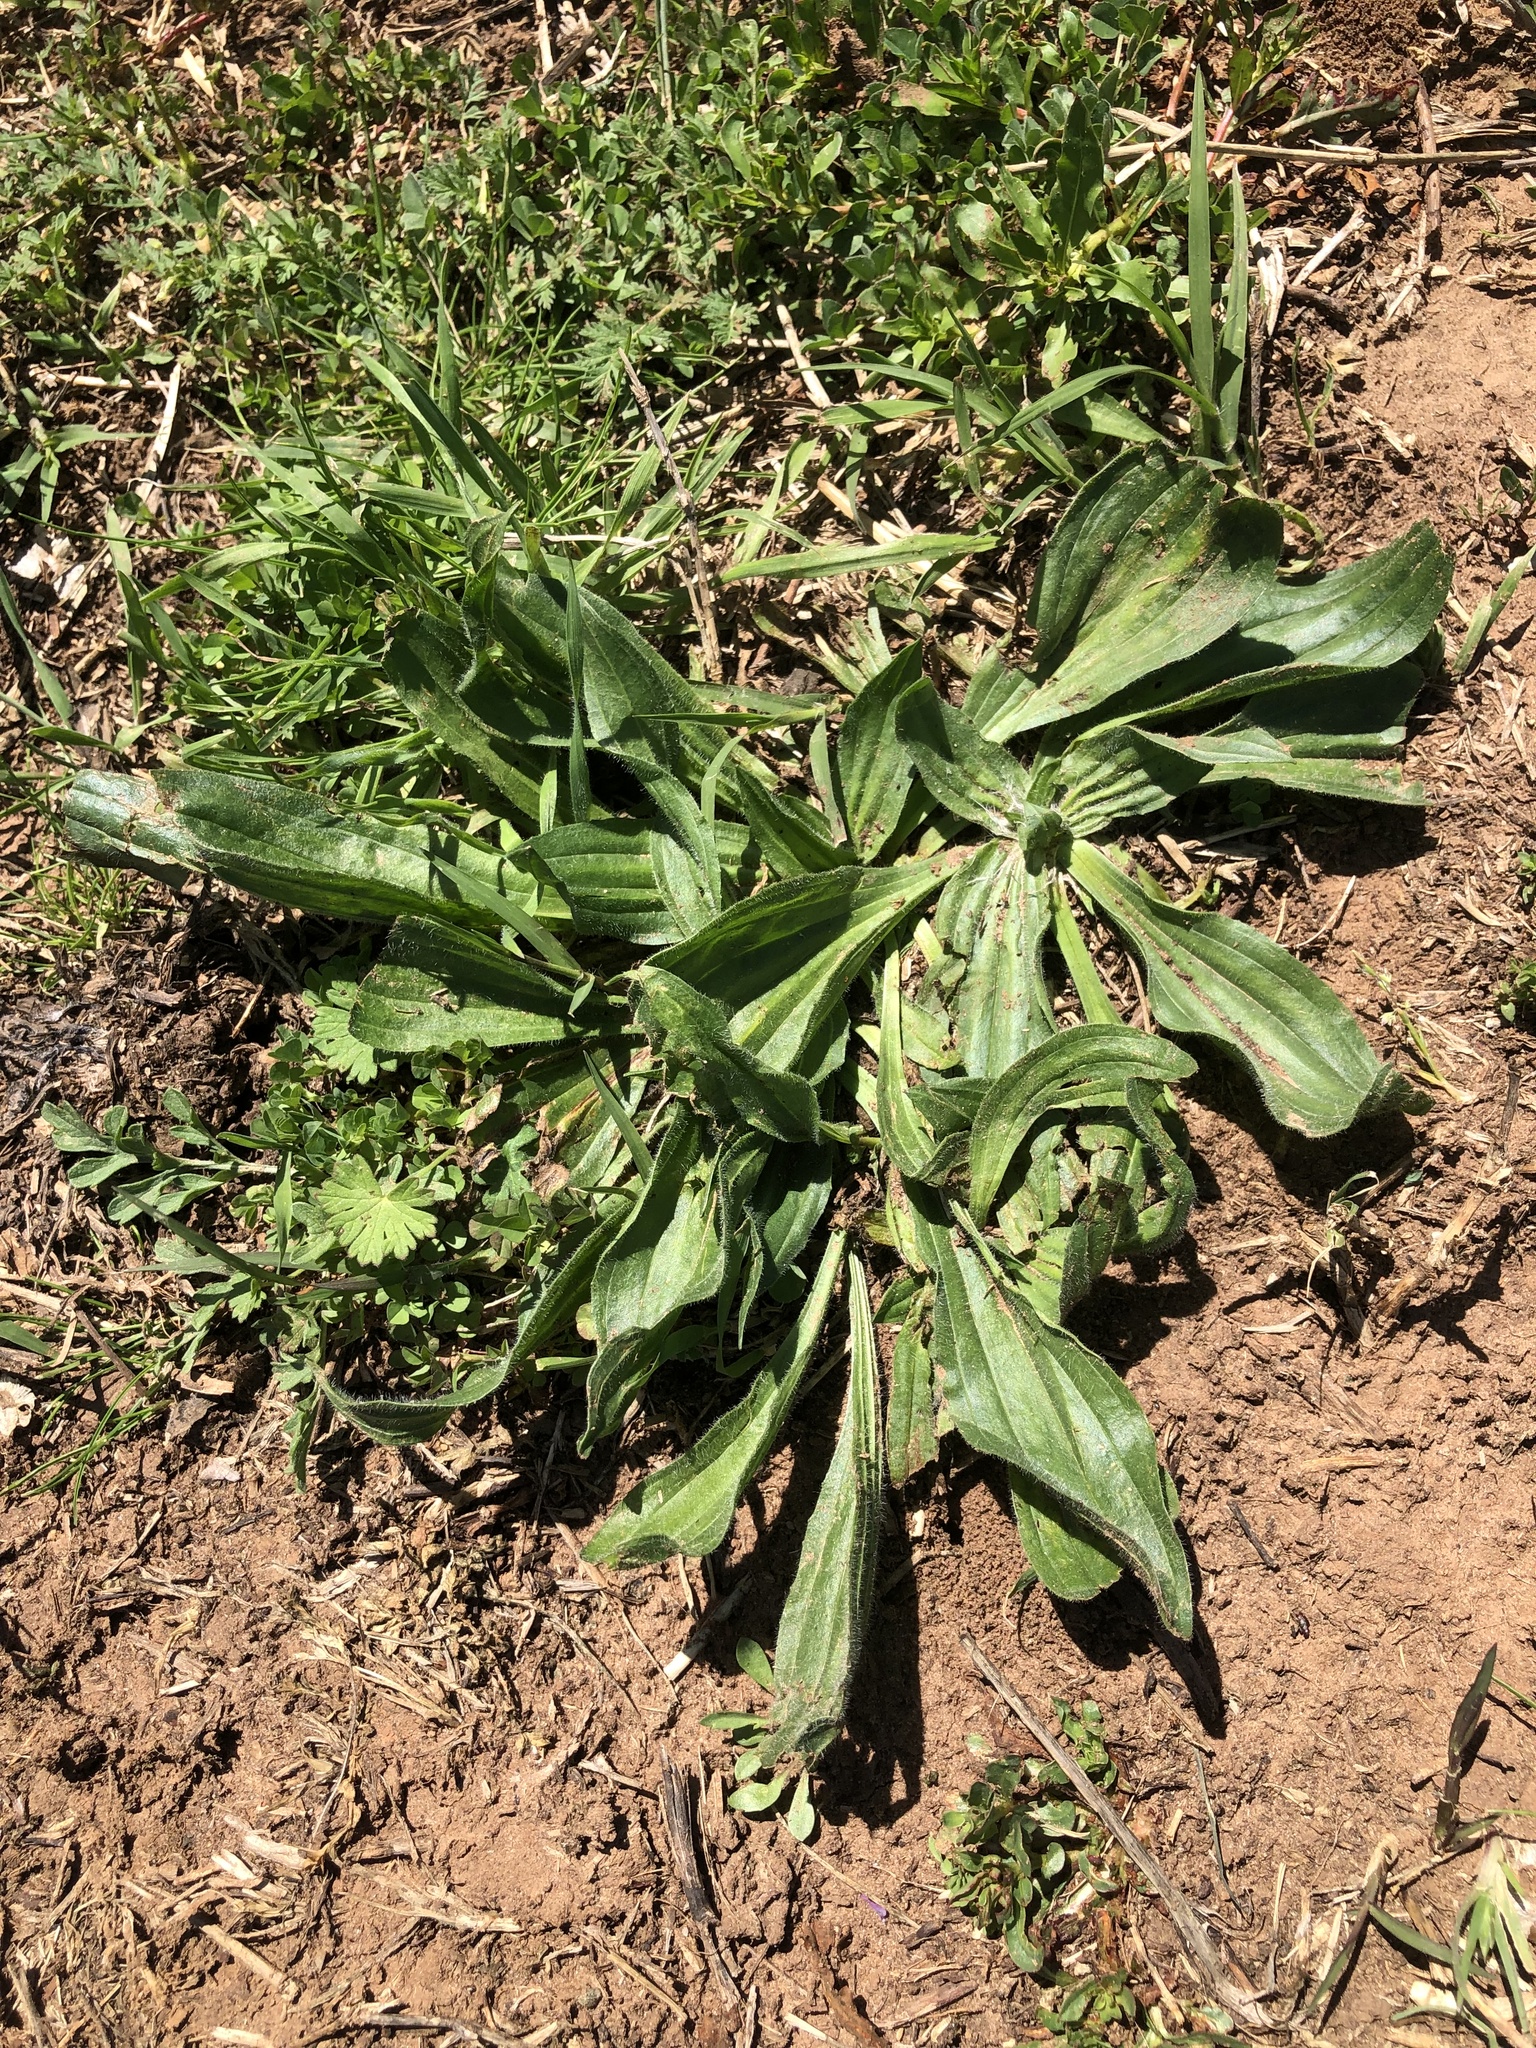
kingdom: Plantae
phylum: Tracheophyta
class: Magnoliopsida
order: Lamiales
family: Plantaginaceae
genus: Plantago
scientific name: Plantago lanceolata
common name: Ribwort plantain
